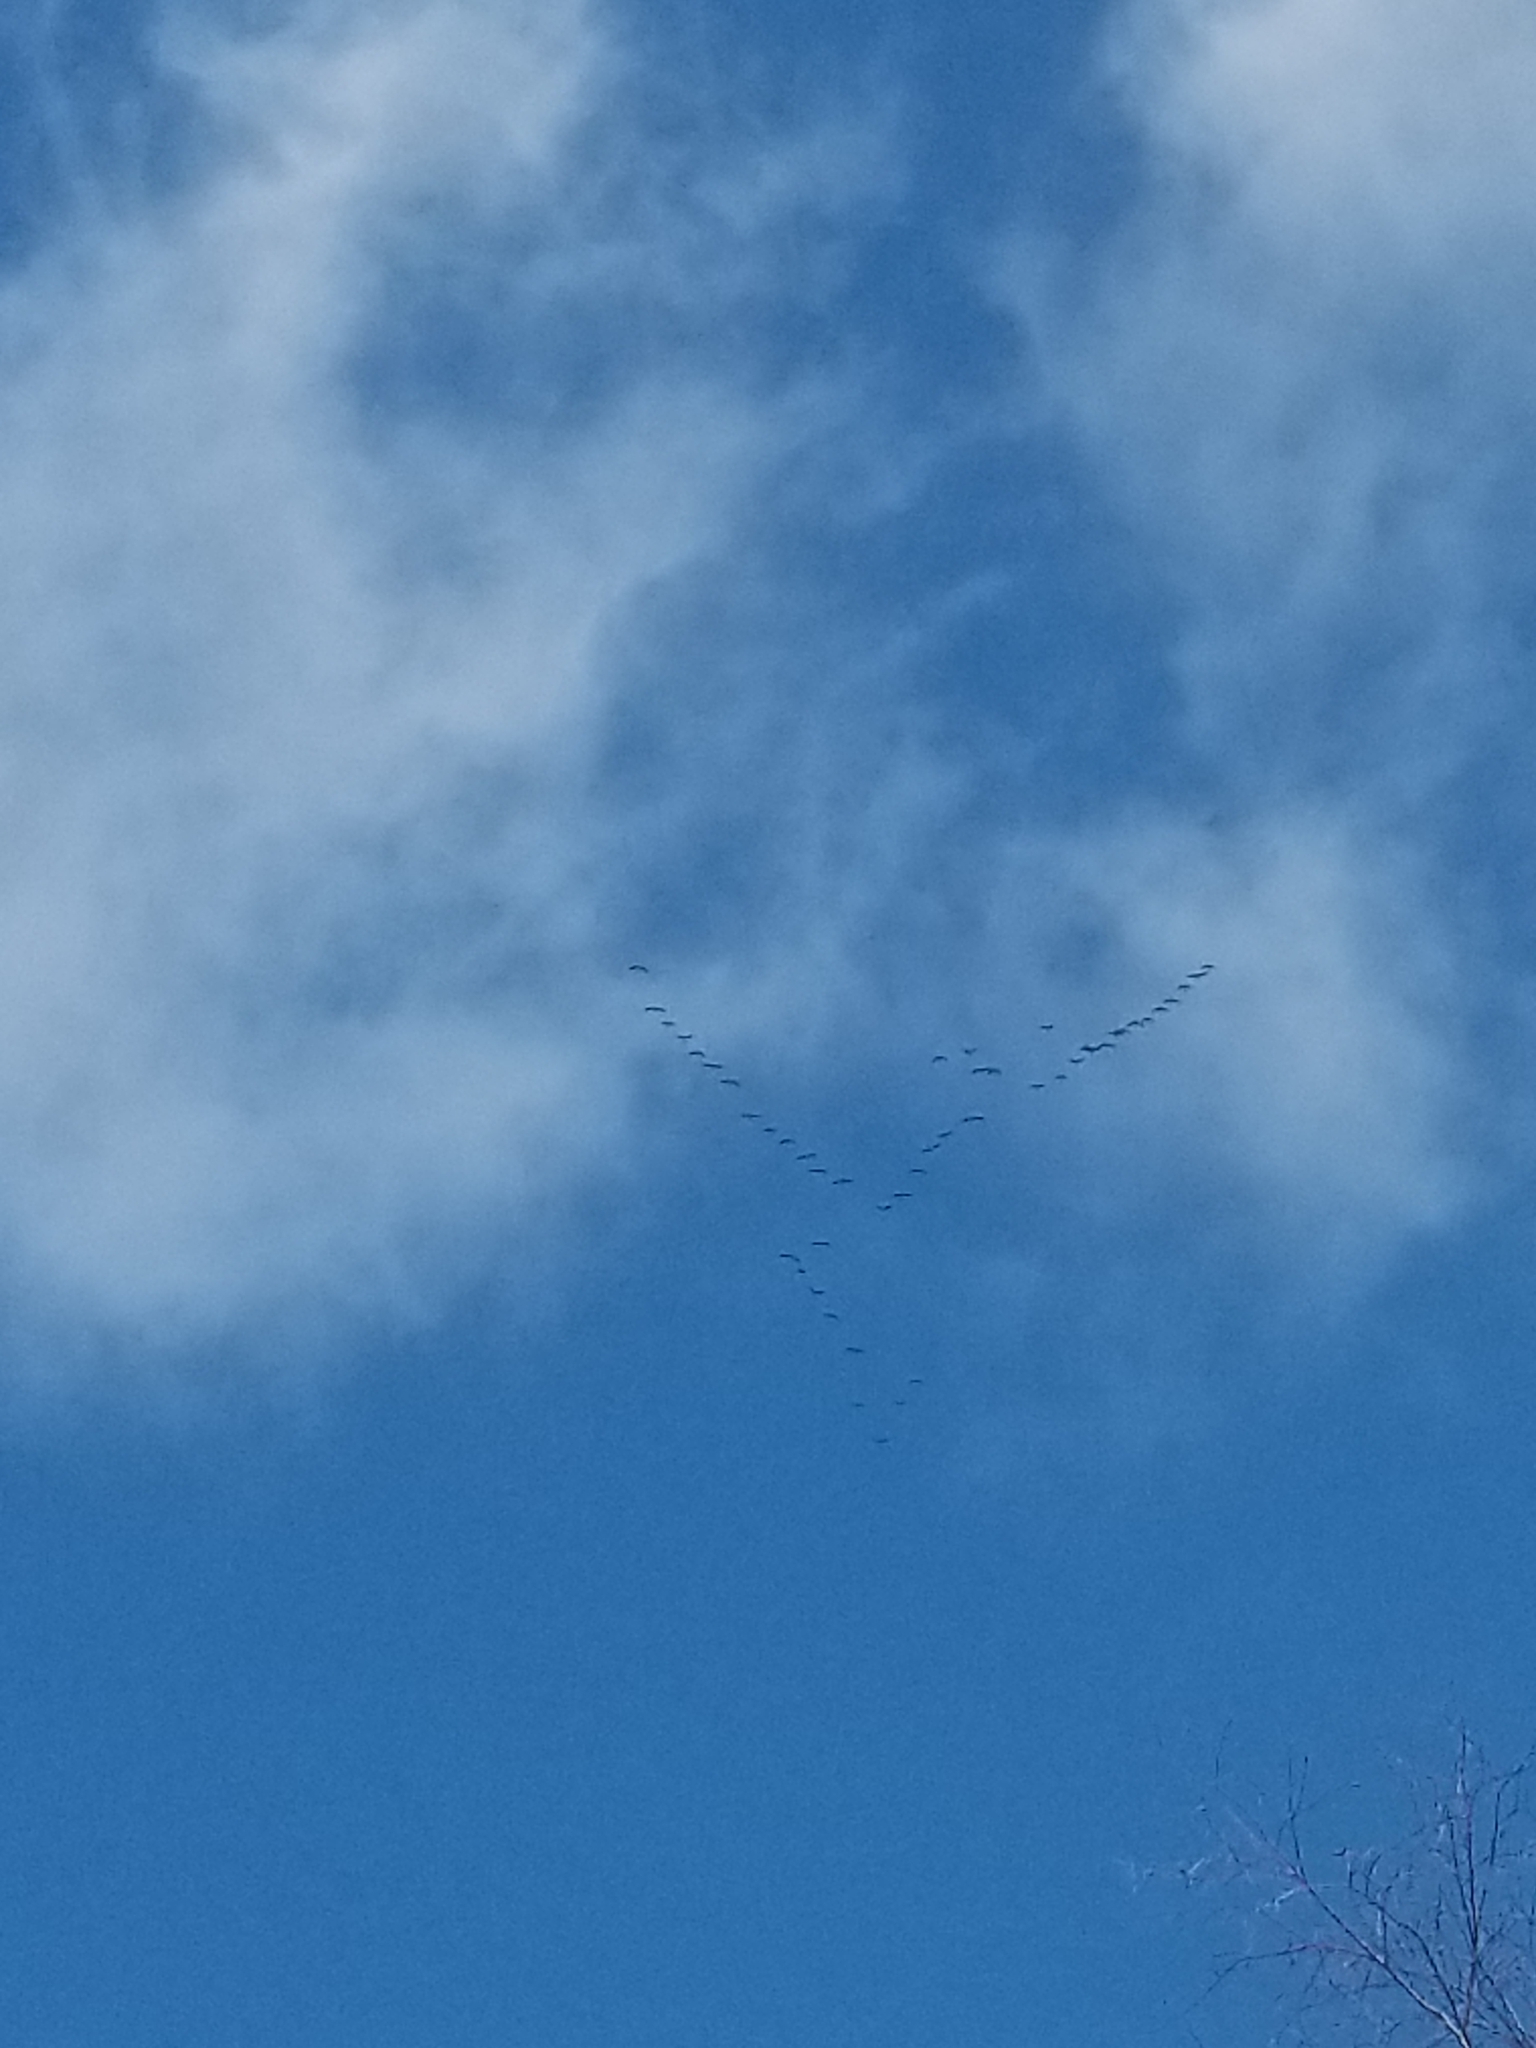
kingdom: Animalia
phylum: Chordata
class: Aves
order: Anseriformes
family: Anatidae
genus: Branta
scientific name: Branta canadensis
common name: Canada goose
